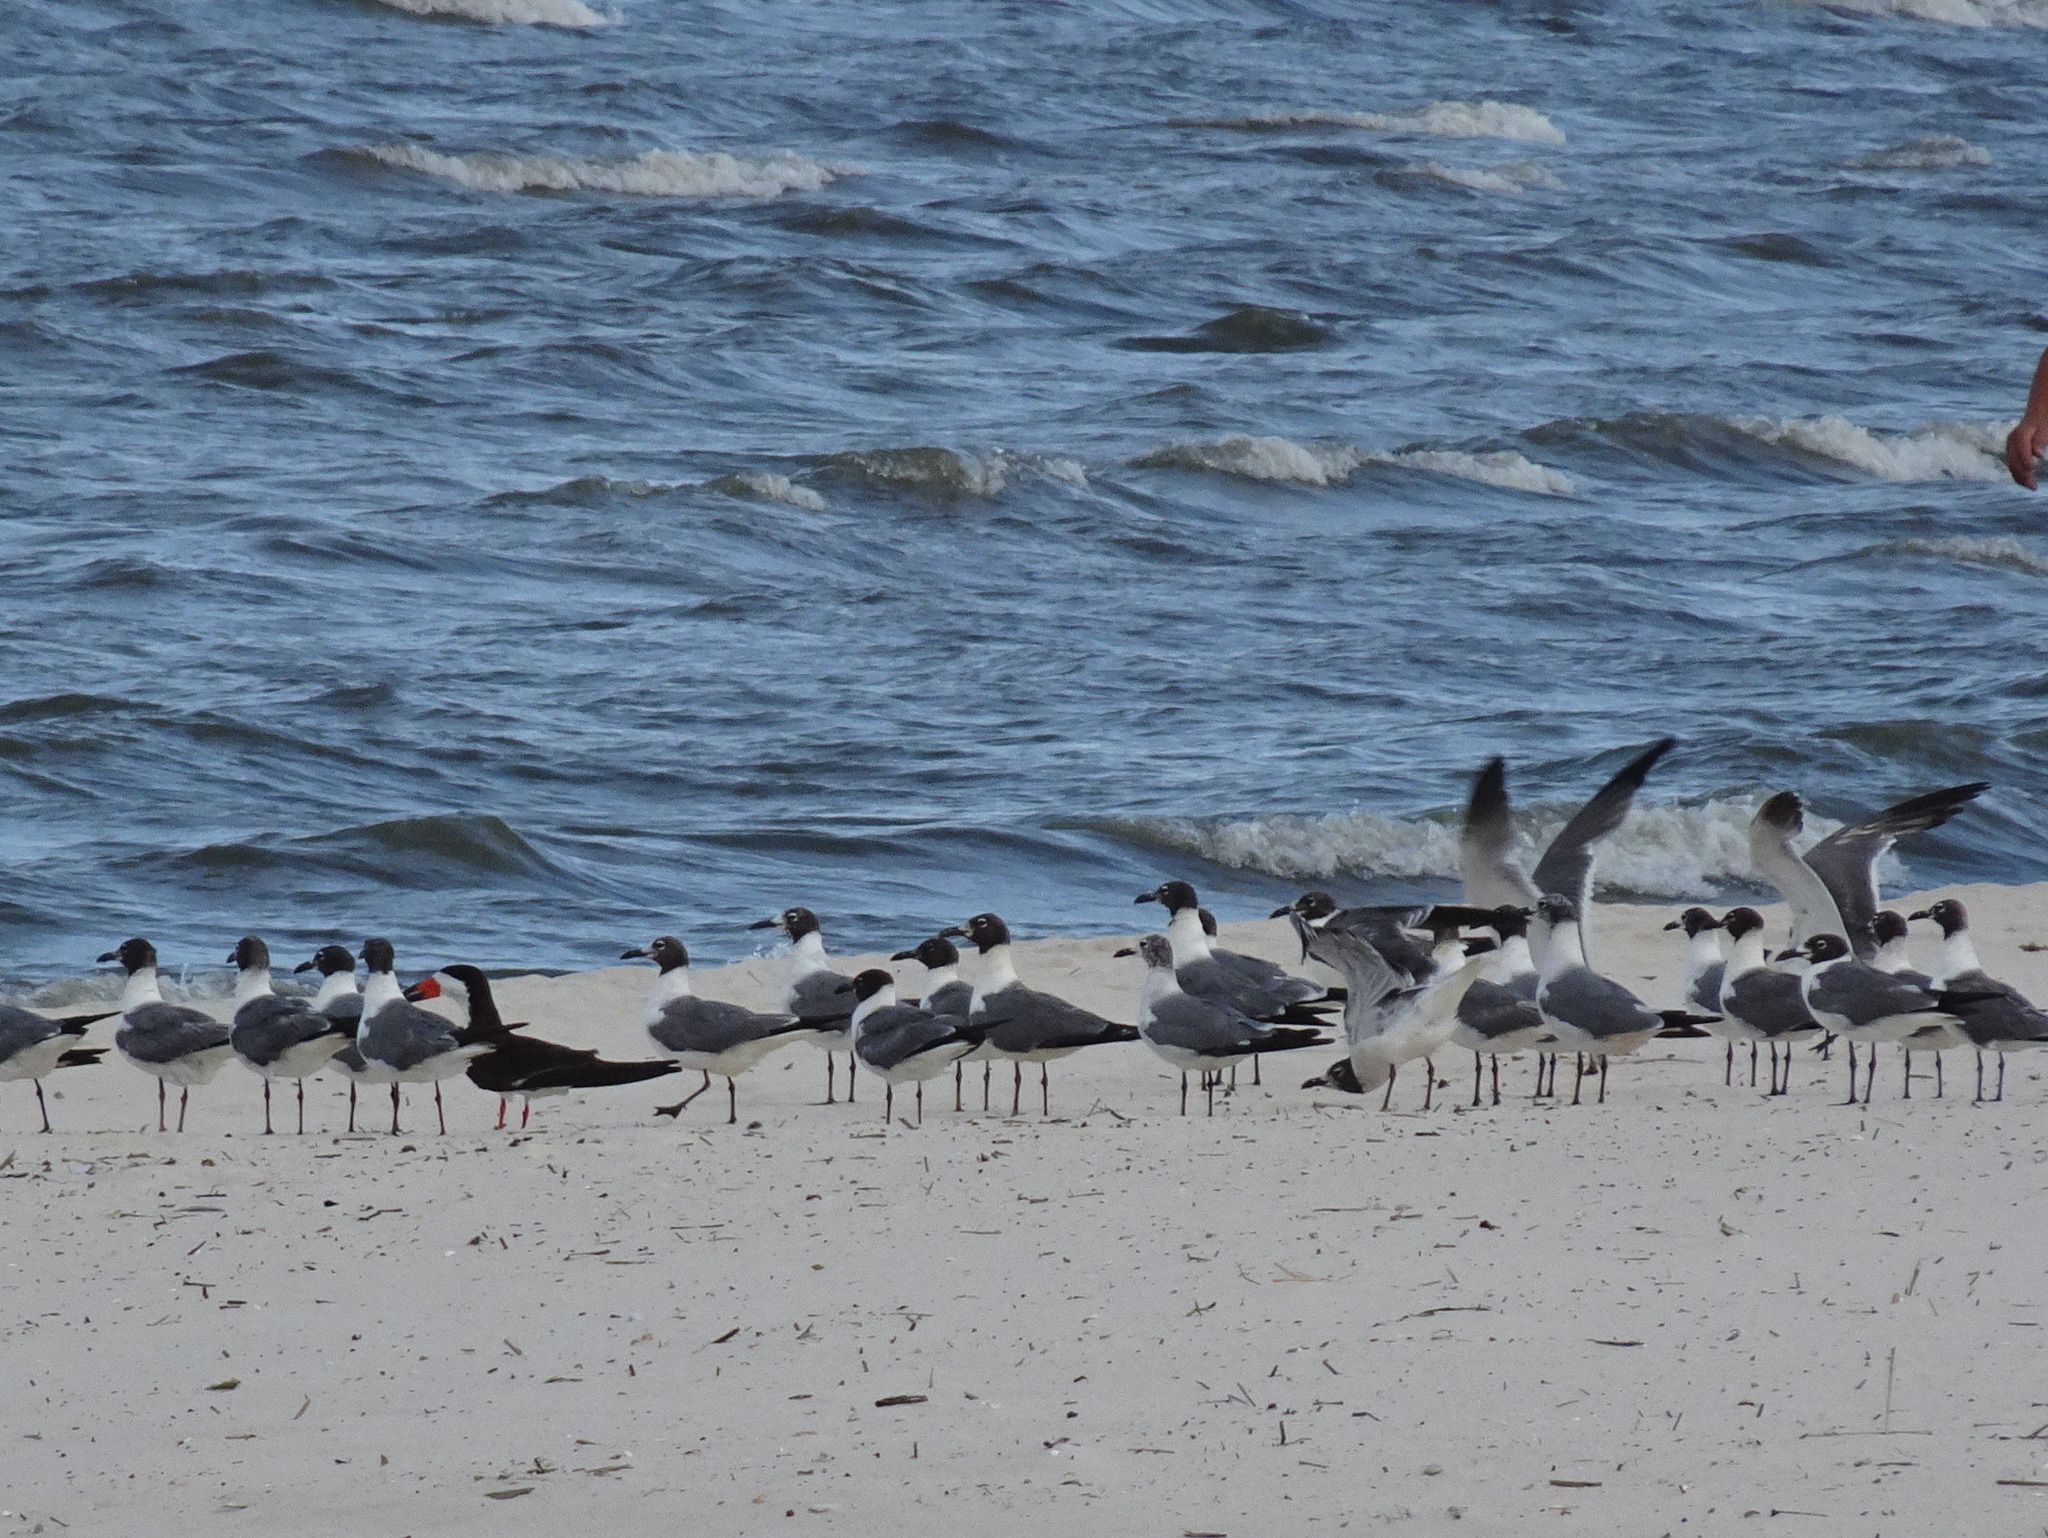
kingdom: Animalia
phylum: Chordata
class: Aves
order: Charadriiformes
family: Laridae
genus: Leucophaeus
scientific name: Leucophaeus atricilla
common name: Laughing gull
